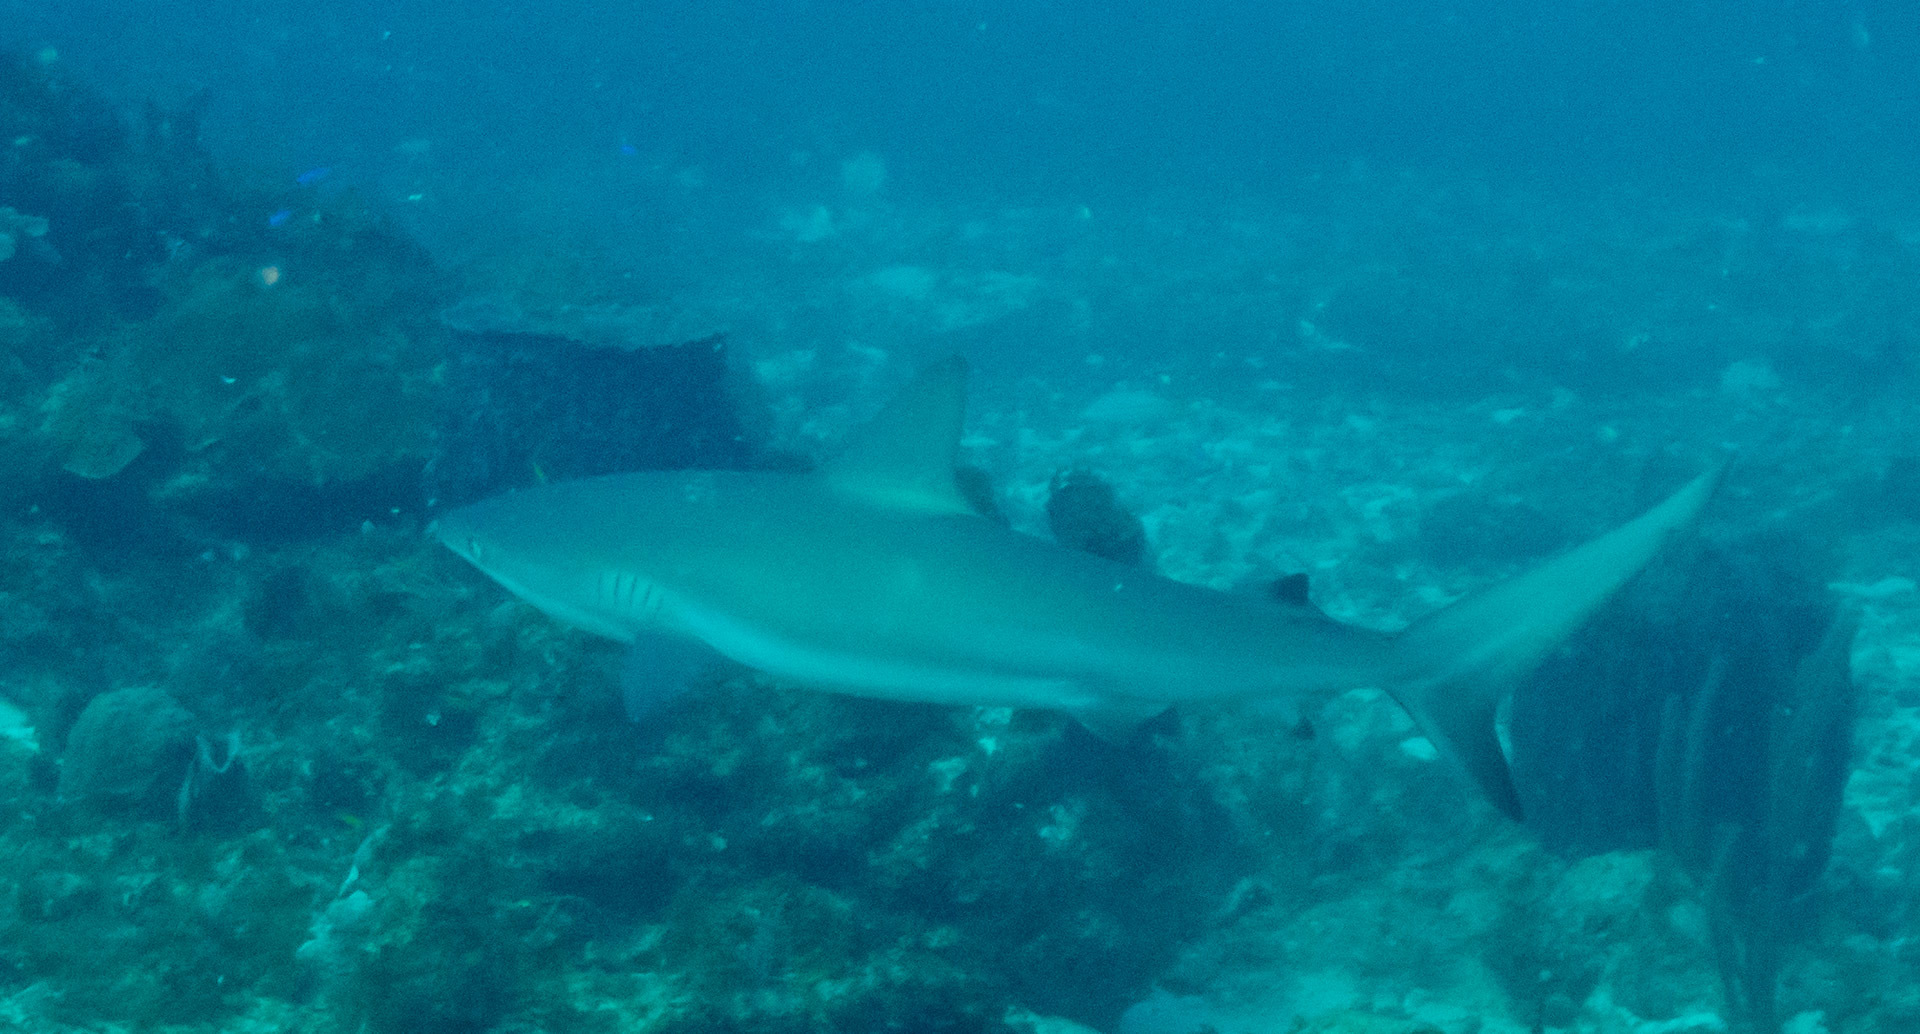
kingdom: Animalia
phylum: Chordata
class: Elasmobranchii
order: Carcharhiniformes
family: Carcharhinidae
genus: Carcharhinus
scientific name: Carcharhinus perezii
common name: Reef shark
